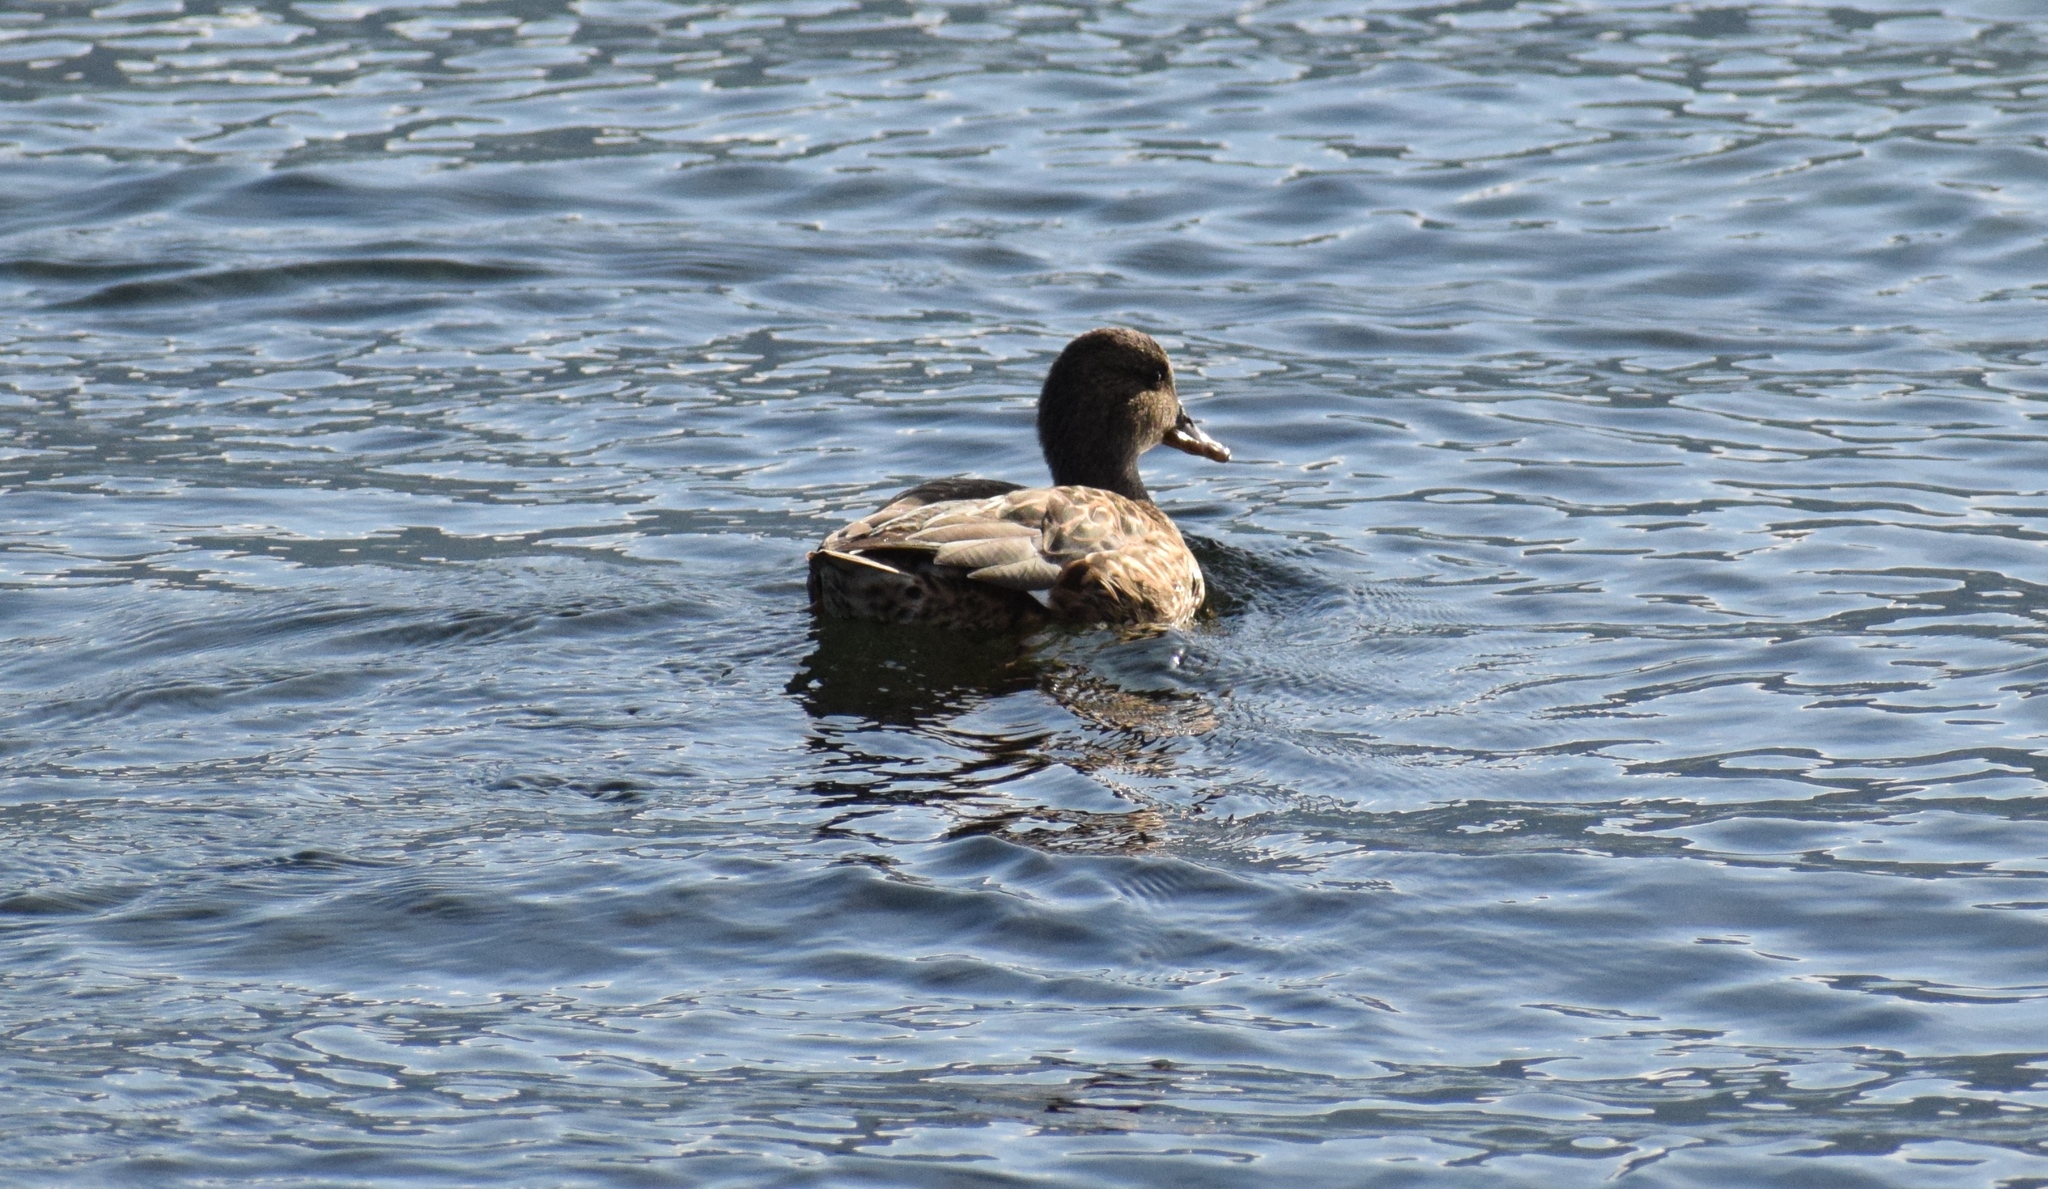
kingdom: Animalia
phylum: Chordata
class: Aves
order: Anseriformes
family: Anatidae
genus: Mareca
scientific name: Mareca strepera
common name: Gadwall
